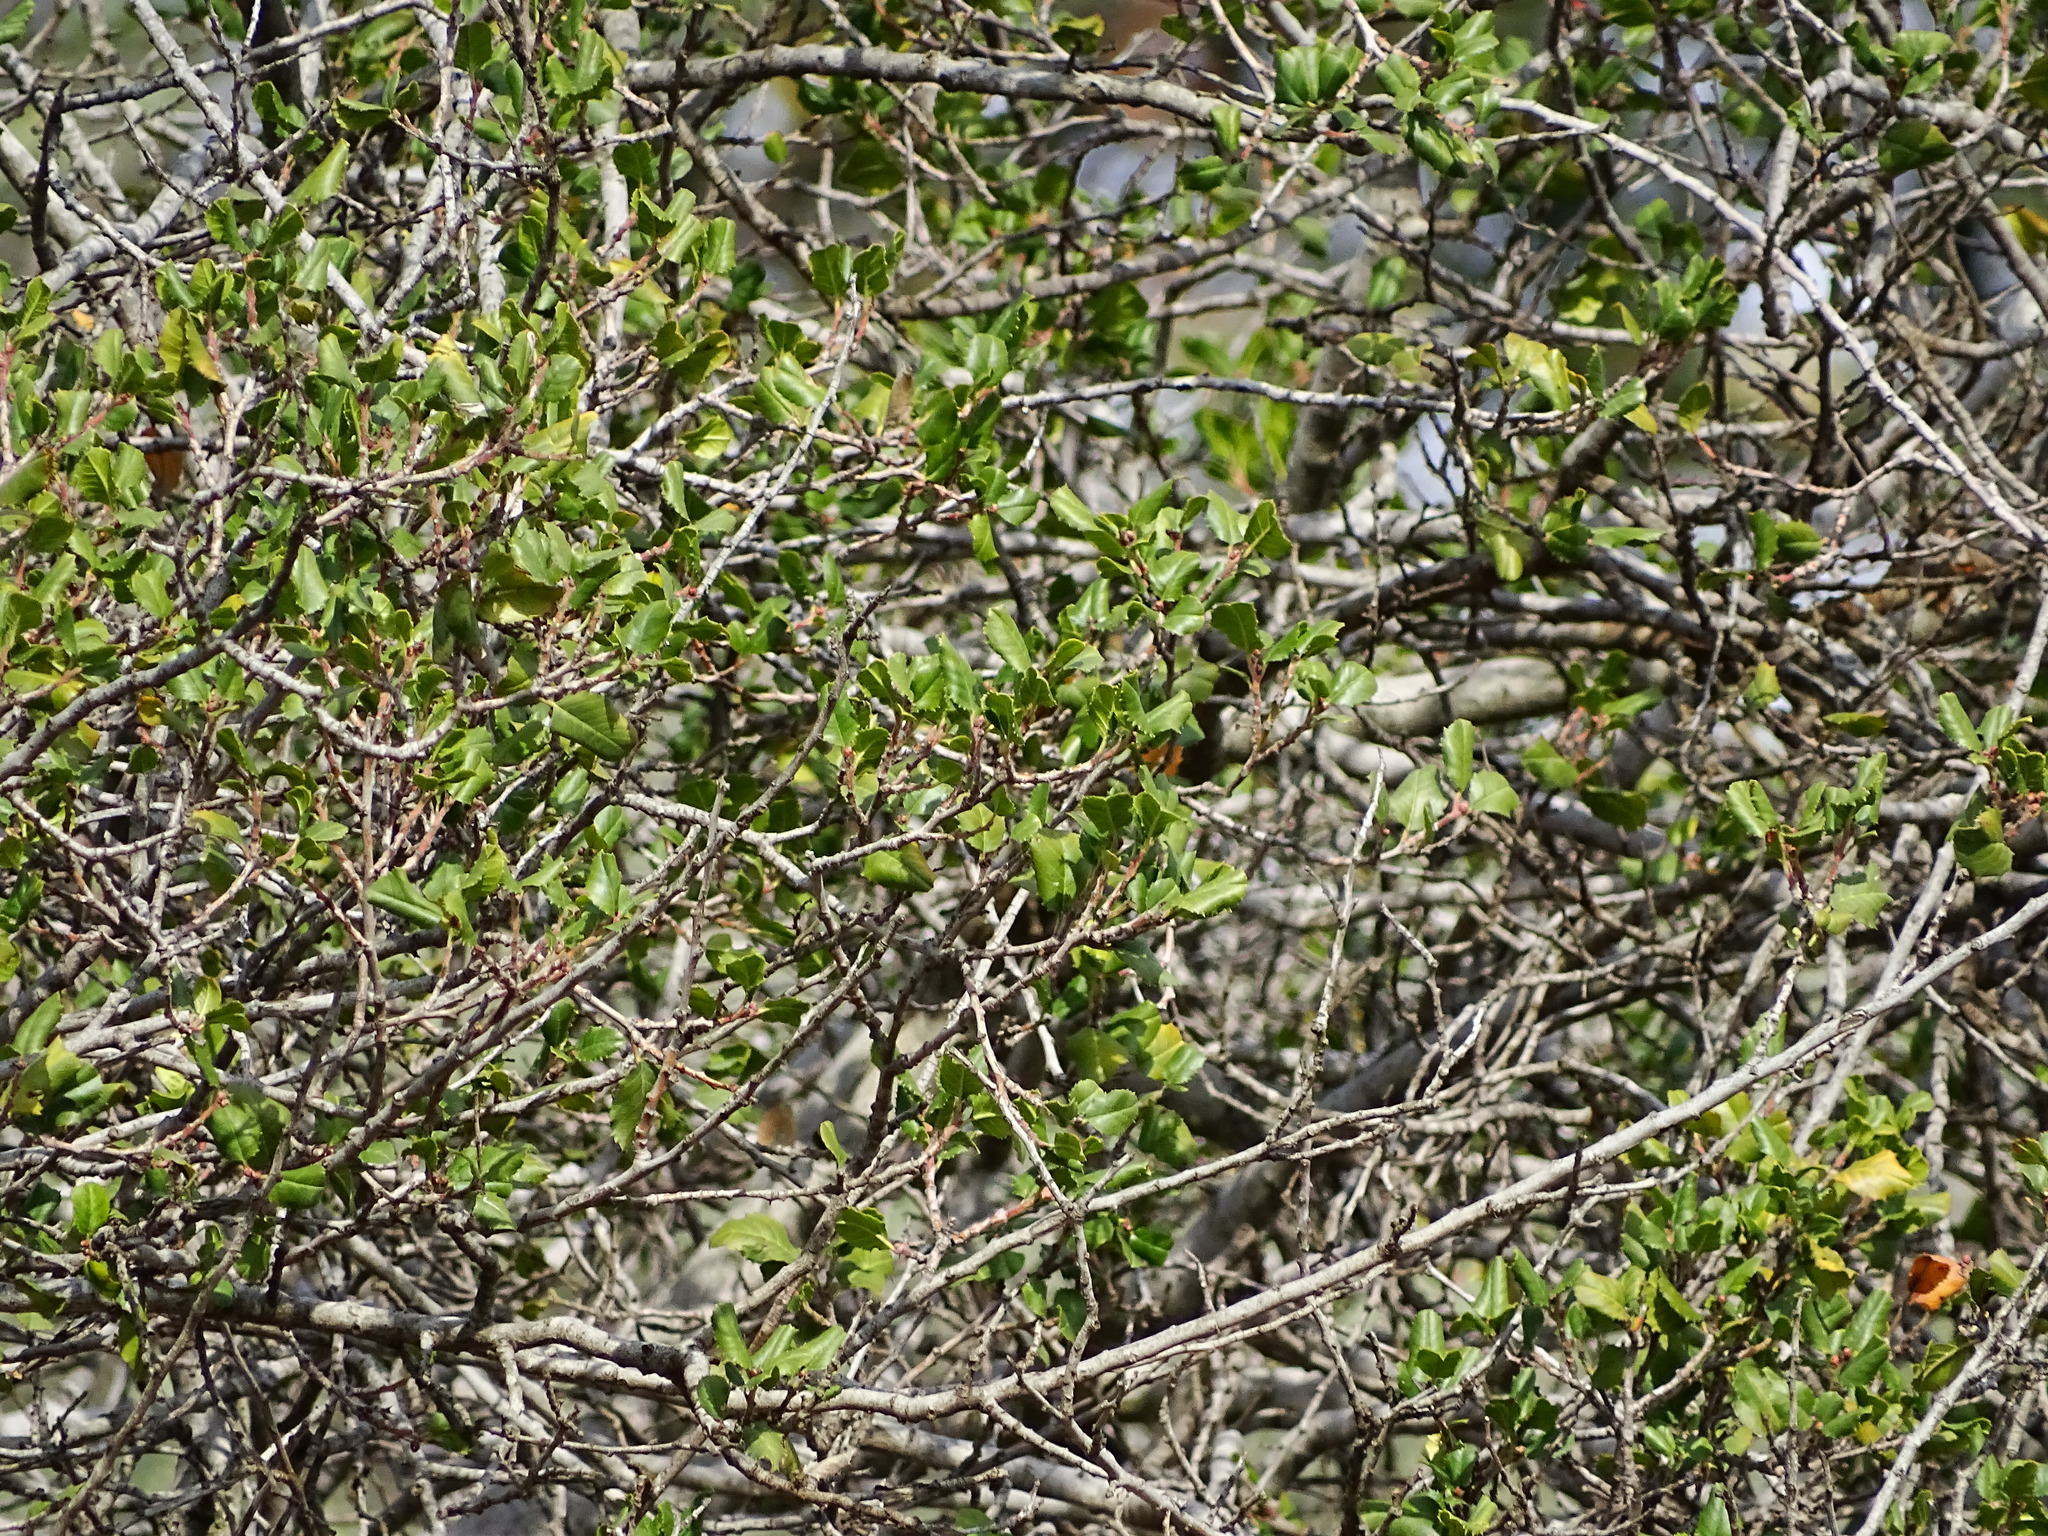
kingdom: Plantae
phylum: Tracheophyta
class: Magnoliopsida
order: Rosales
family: Rhamnaceae
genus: Endotropis
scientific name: Endotropis crocea
